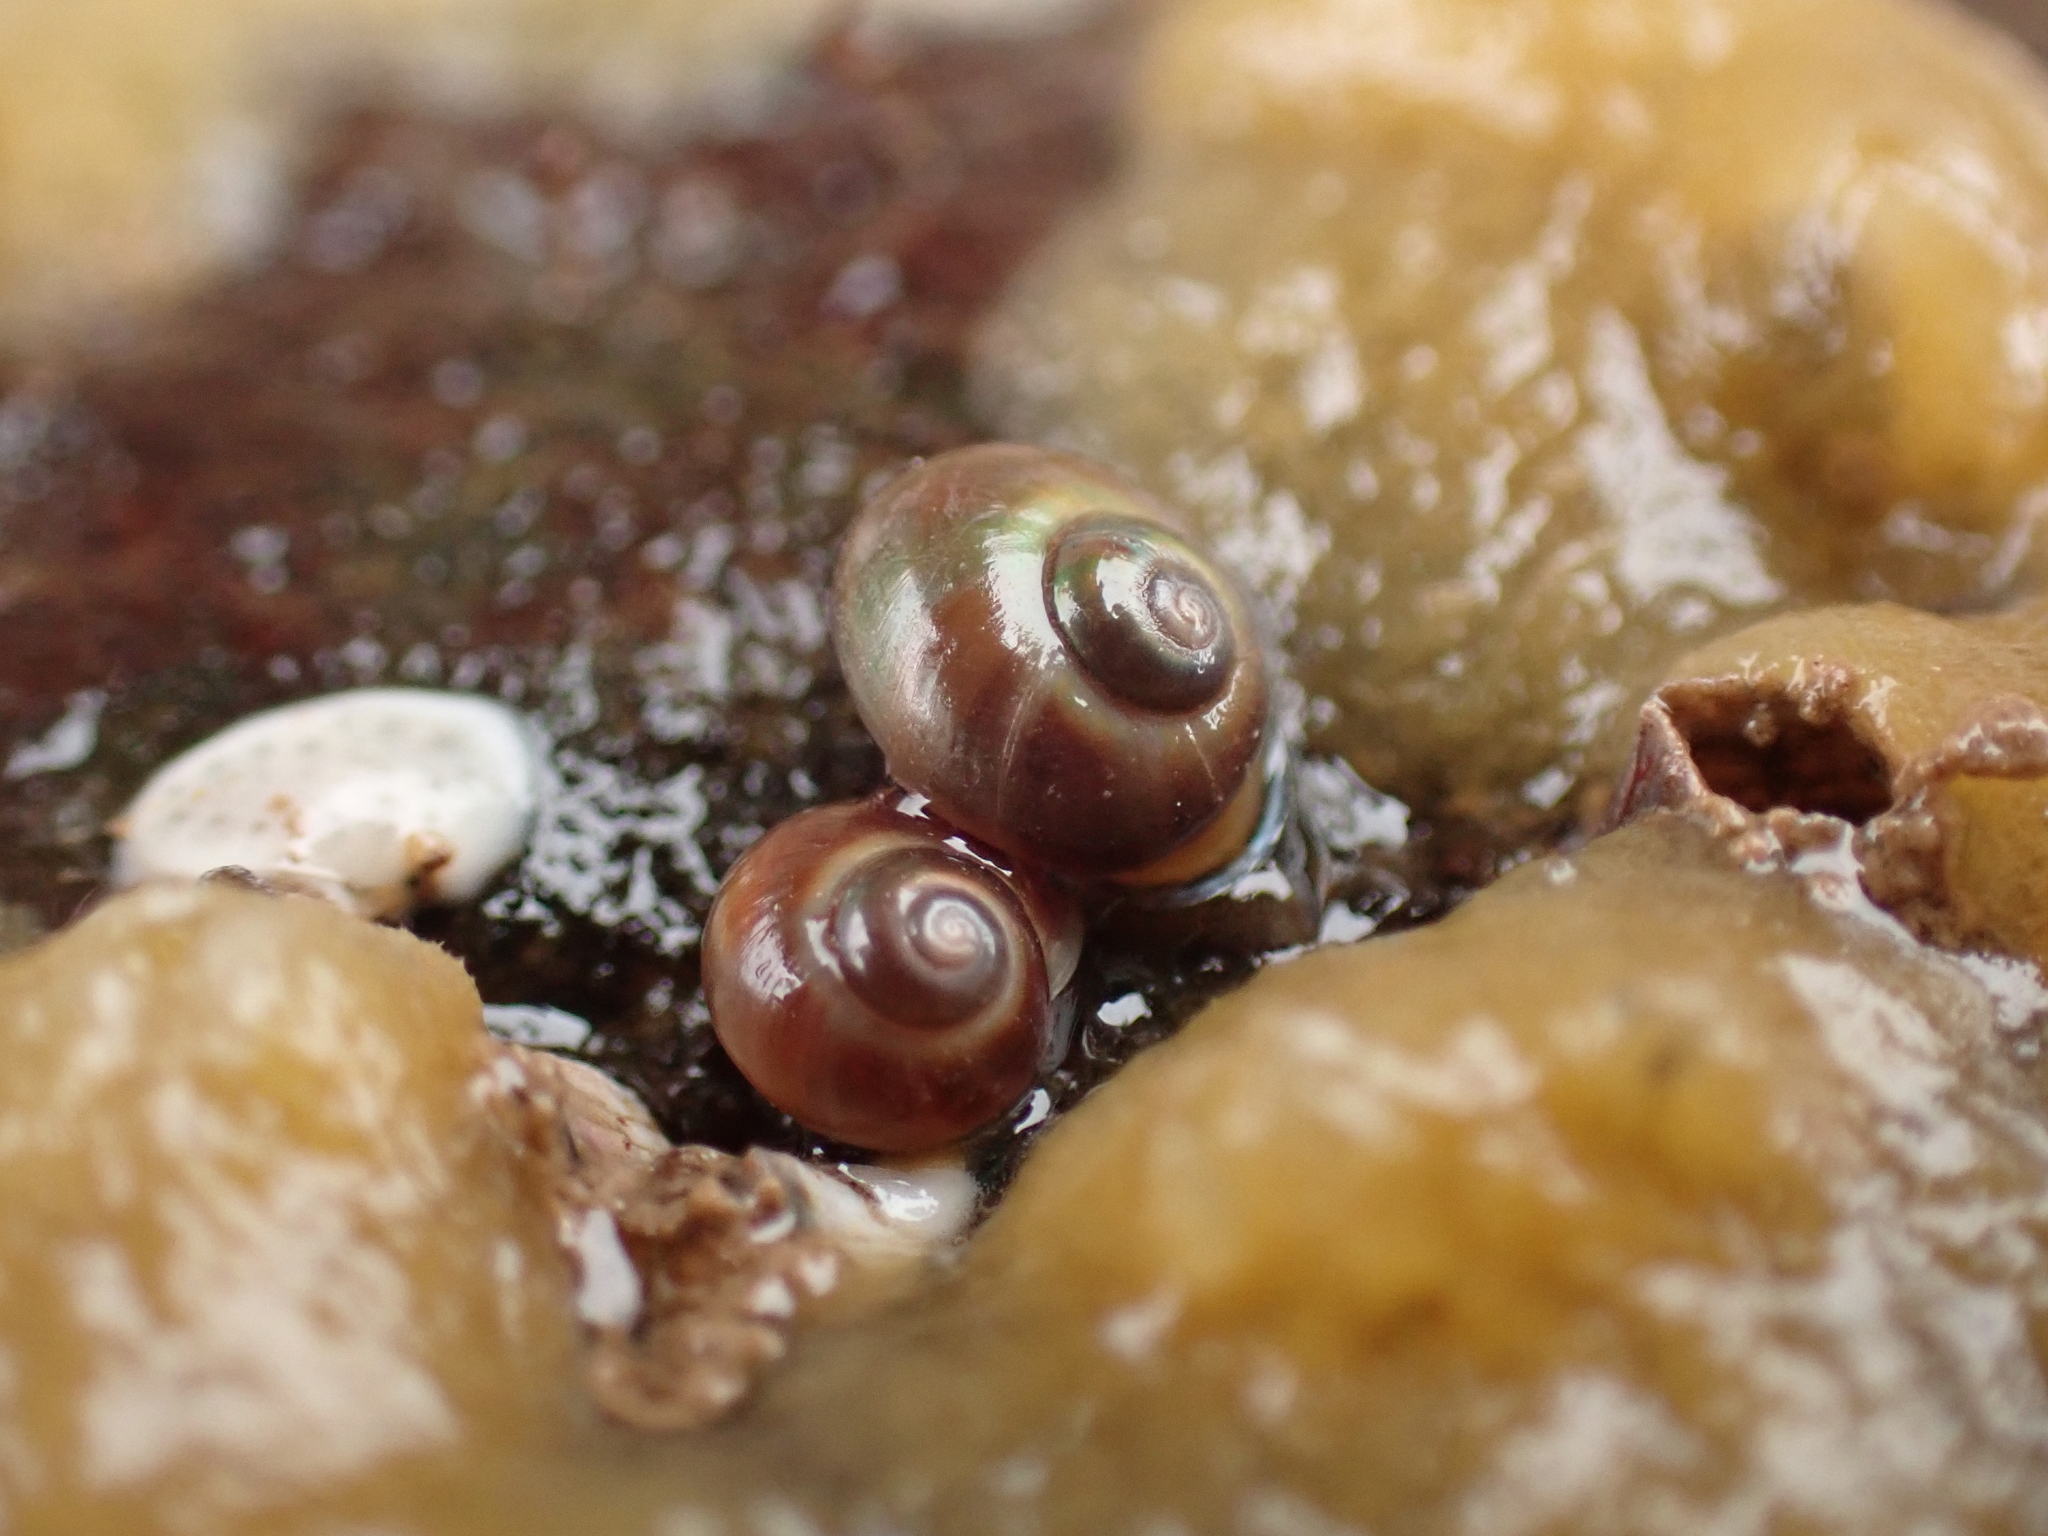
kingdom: Animalia
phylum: Mollusca
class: Gastropoda
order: Trochida
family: Margaritidae
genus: Margarites
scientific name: Margarites helicinus
